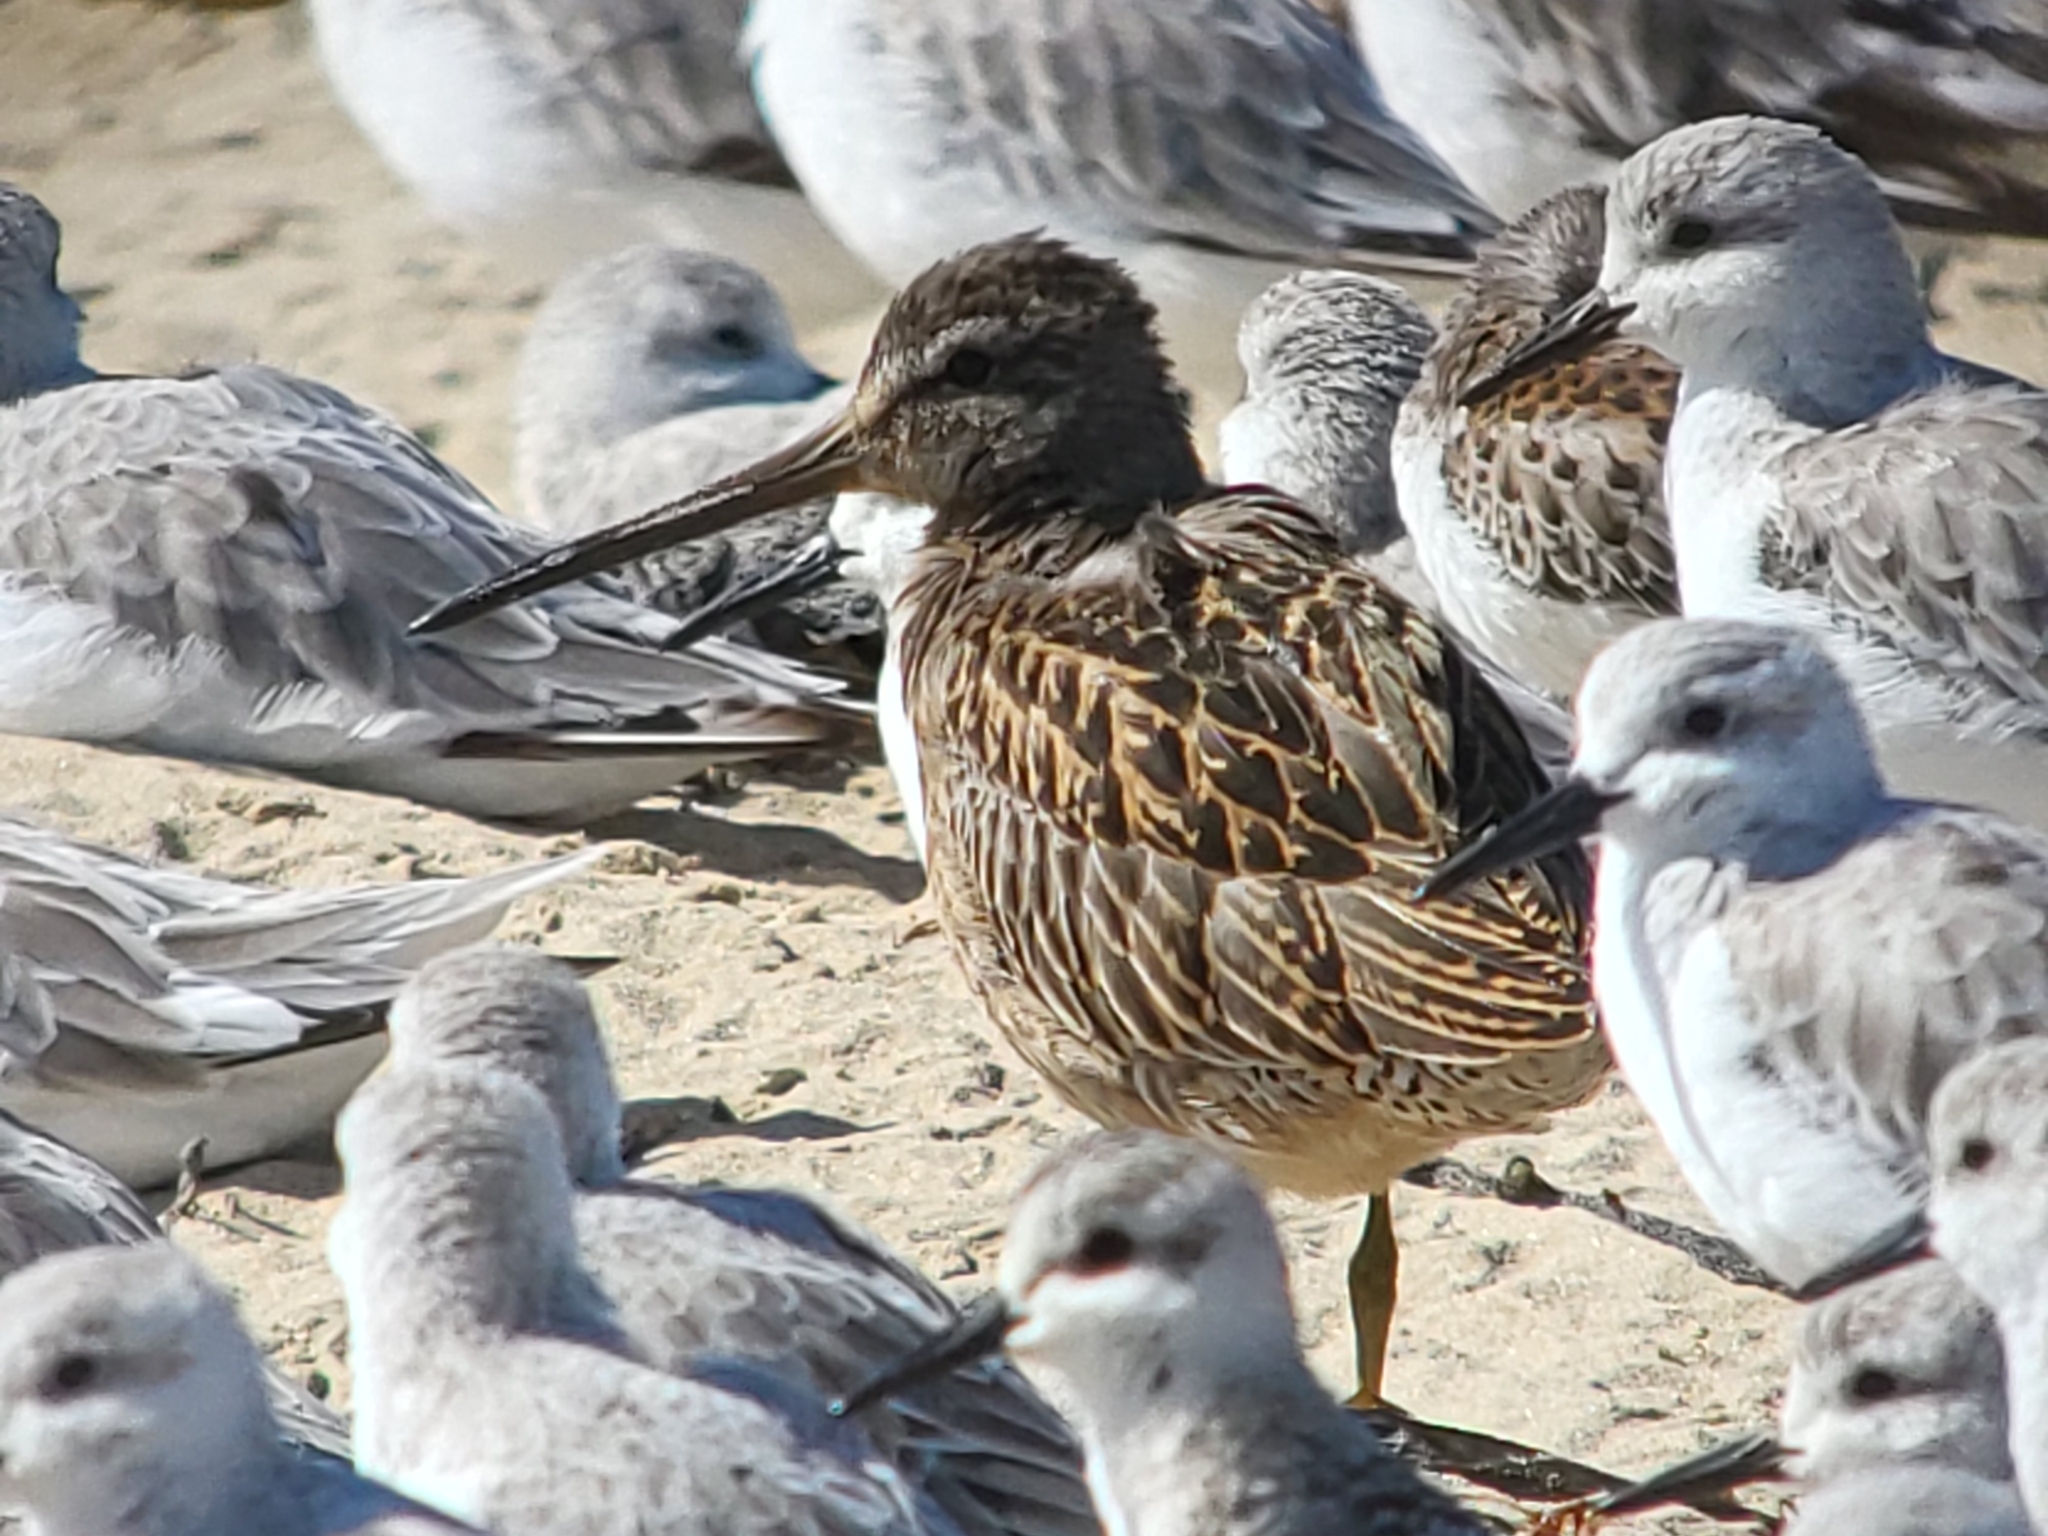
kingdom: Animalia
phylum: Chordata
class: Aves
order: Charadriiformes
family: Scolopacidae
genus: Limnodromus
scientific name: Limnodromus griseus
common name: Short-billed dowitcher
